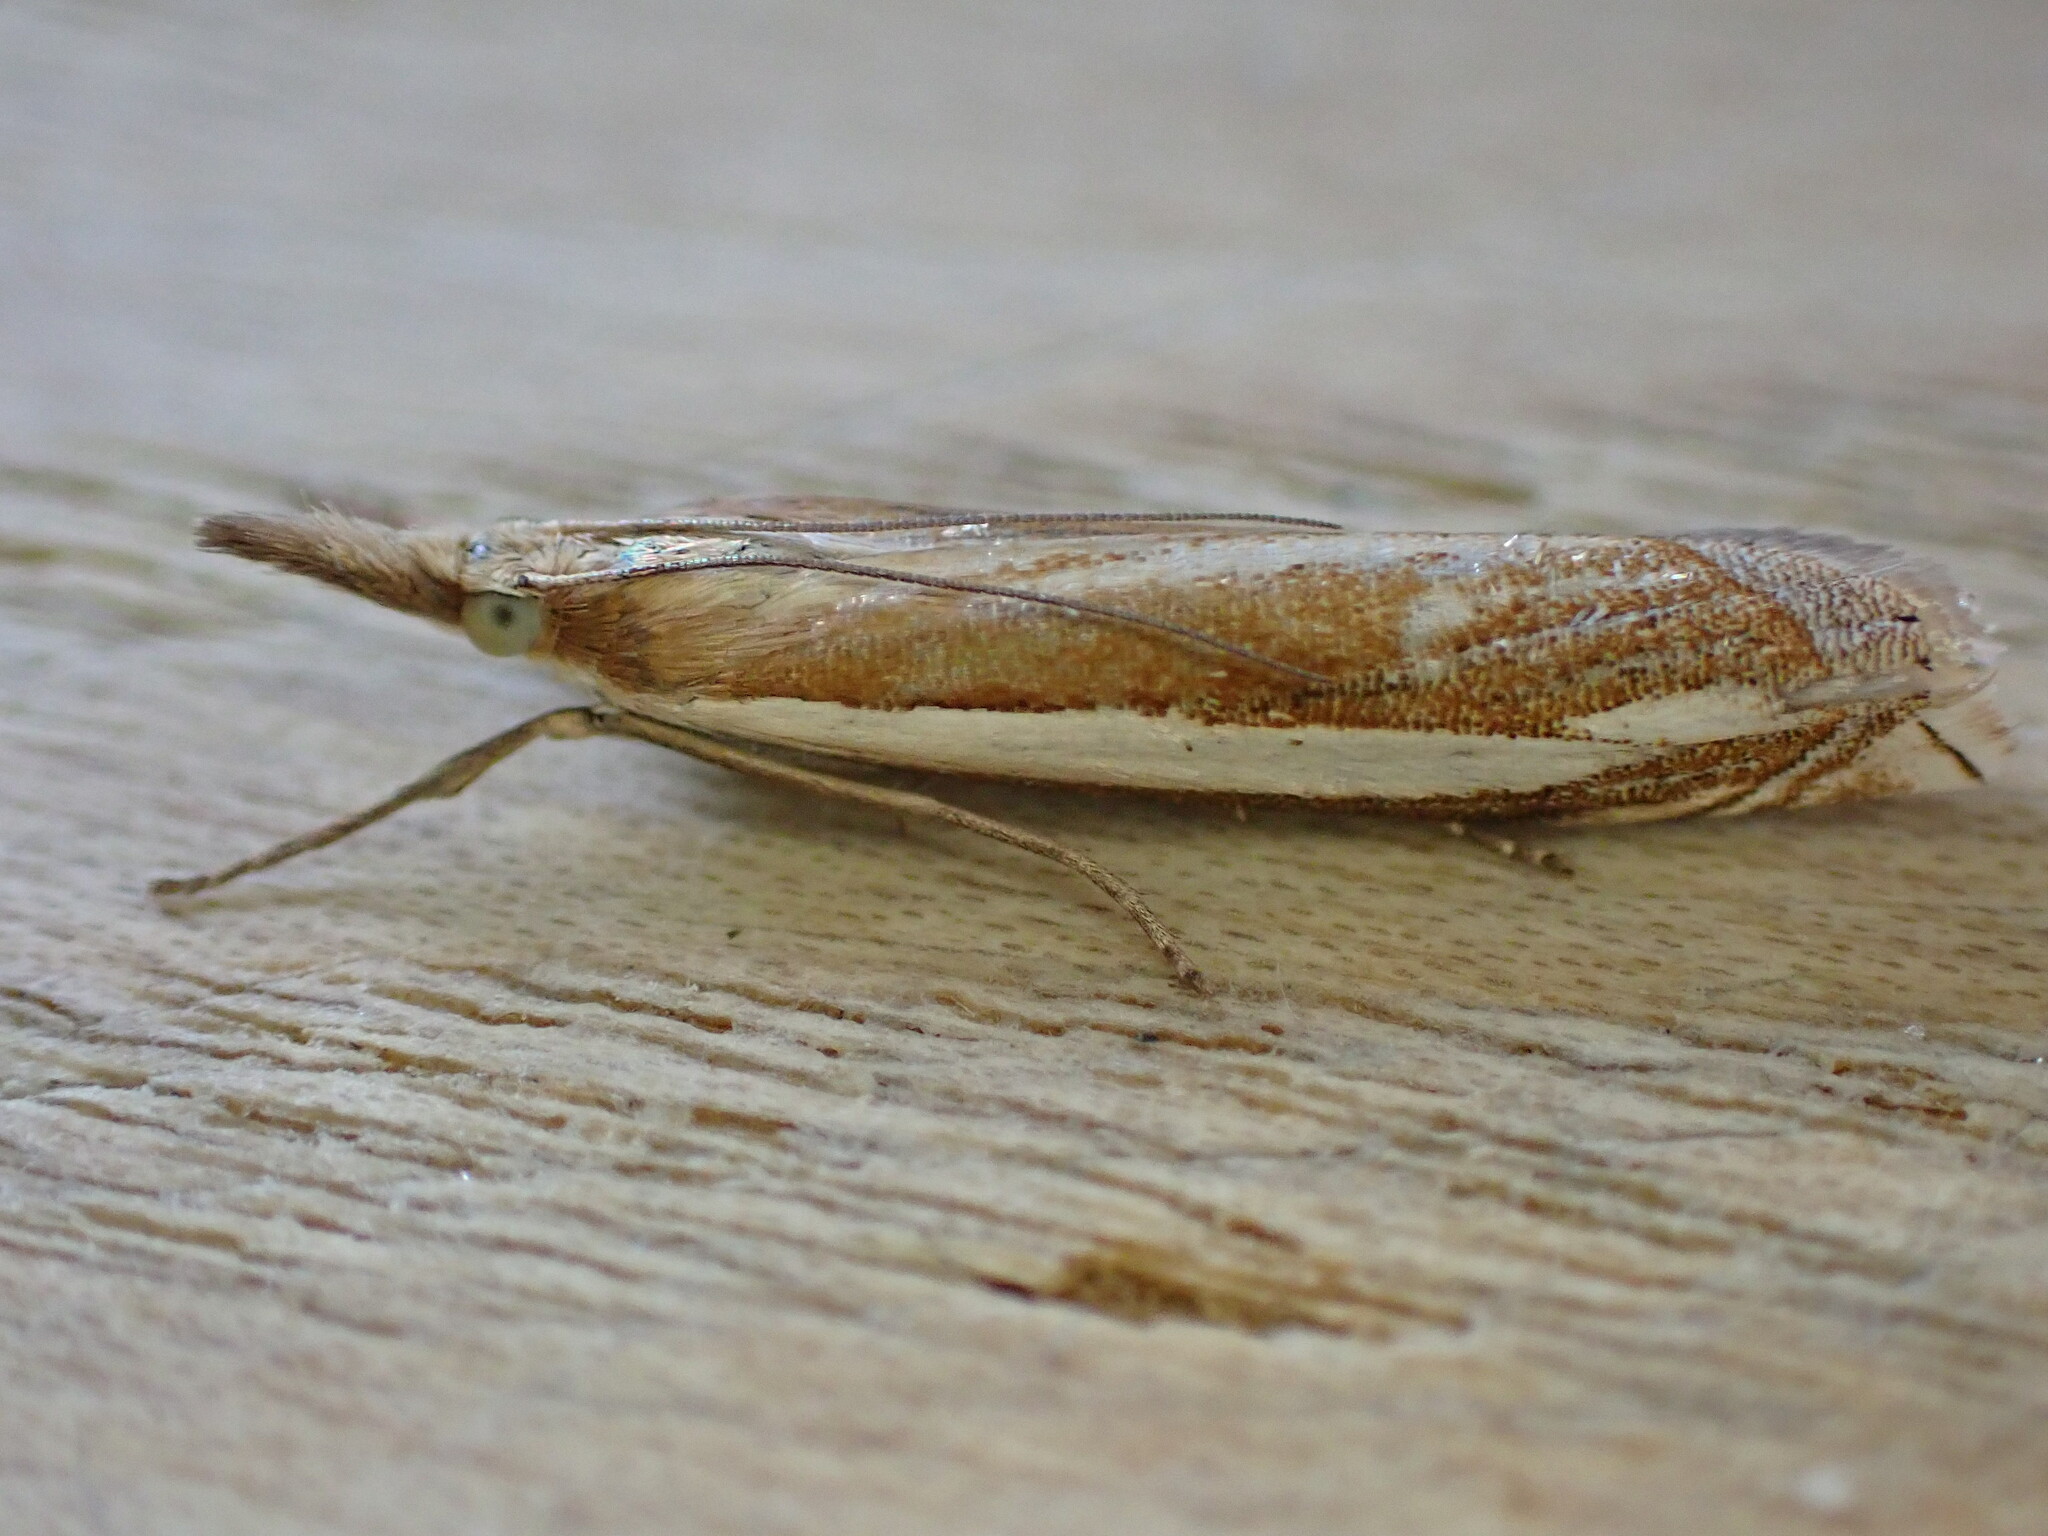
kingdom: Animalia
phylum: Arthropoda
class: Insecta
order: Lepidoptera
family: Crambidae
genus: Crambus
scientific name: Crambus pascuella
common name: Inlaid grass-veneer
